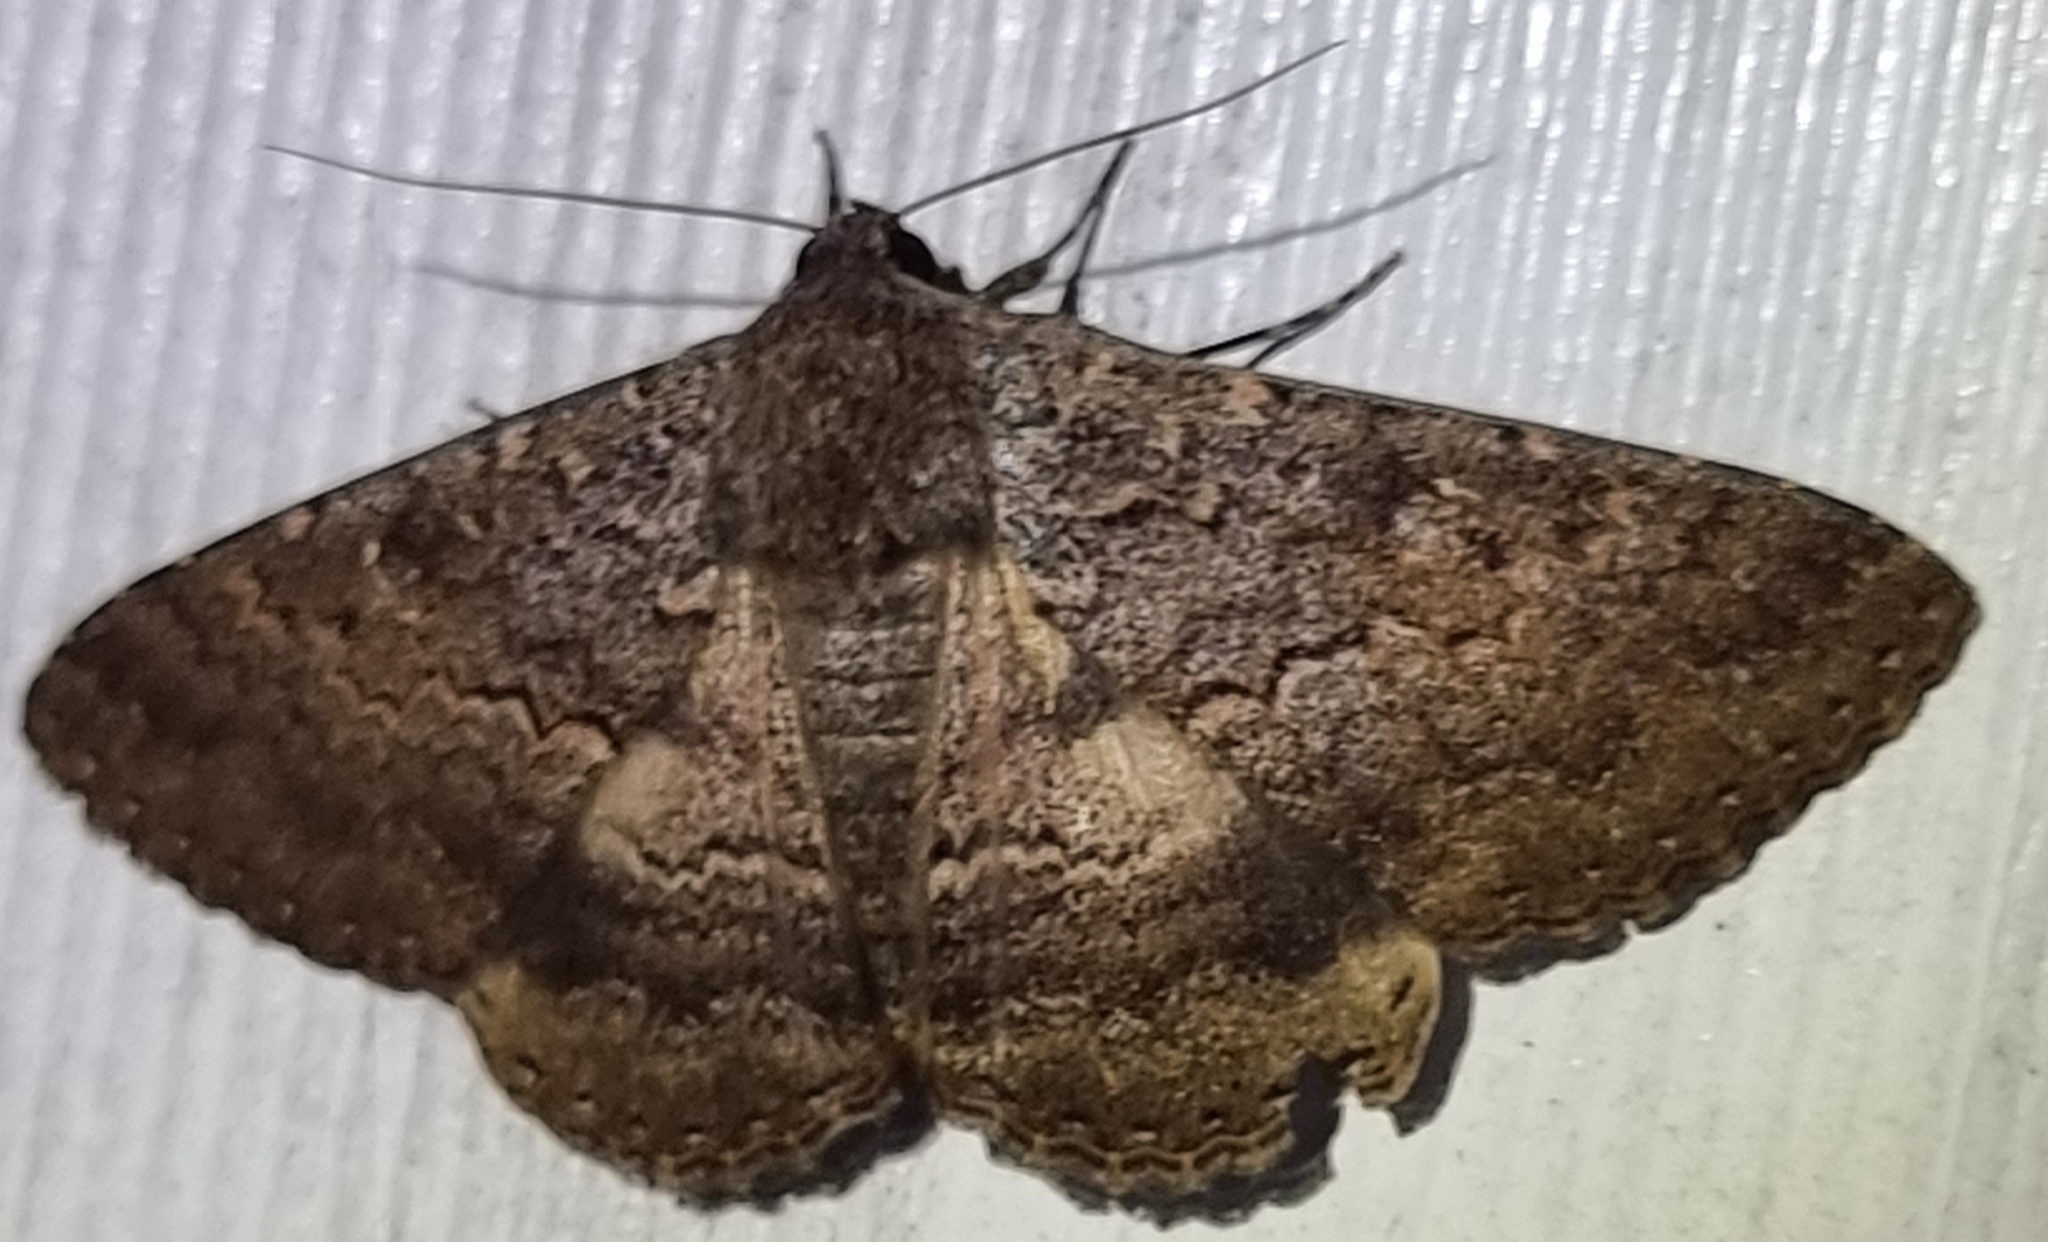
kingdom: Animalia
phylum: Arthropoda
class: Insecta
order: Lepidoptera
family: Erebidae
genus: Eudesmeola
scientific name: Eudesmeola lawsoni
